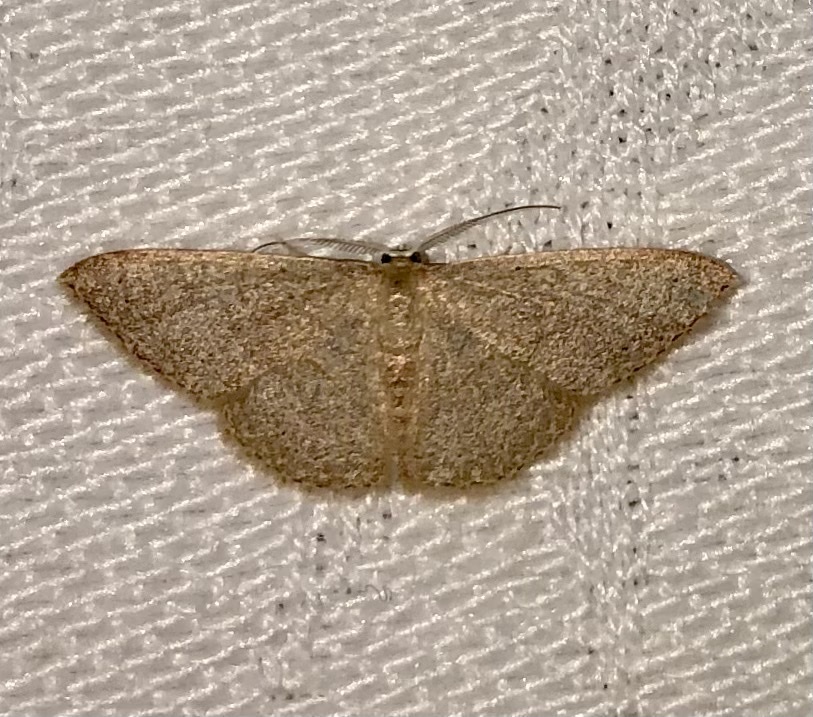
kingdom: Animalia
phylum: Arthropoda
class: Insecta
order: Lepidoptera
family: Geometridae
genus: Pleuroprucha
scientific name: Pleuroprucha insulsaria
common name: Common tan wave
